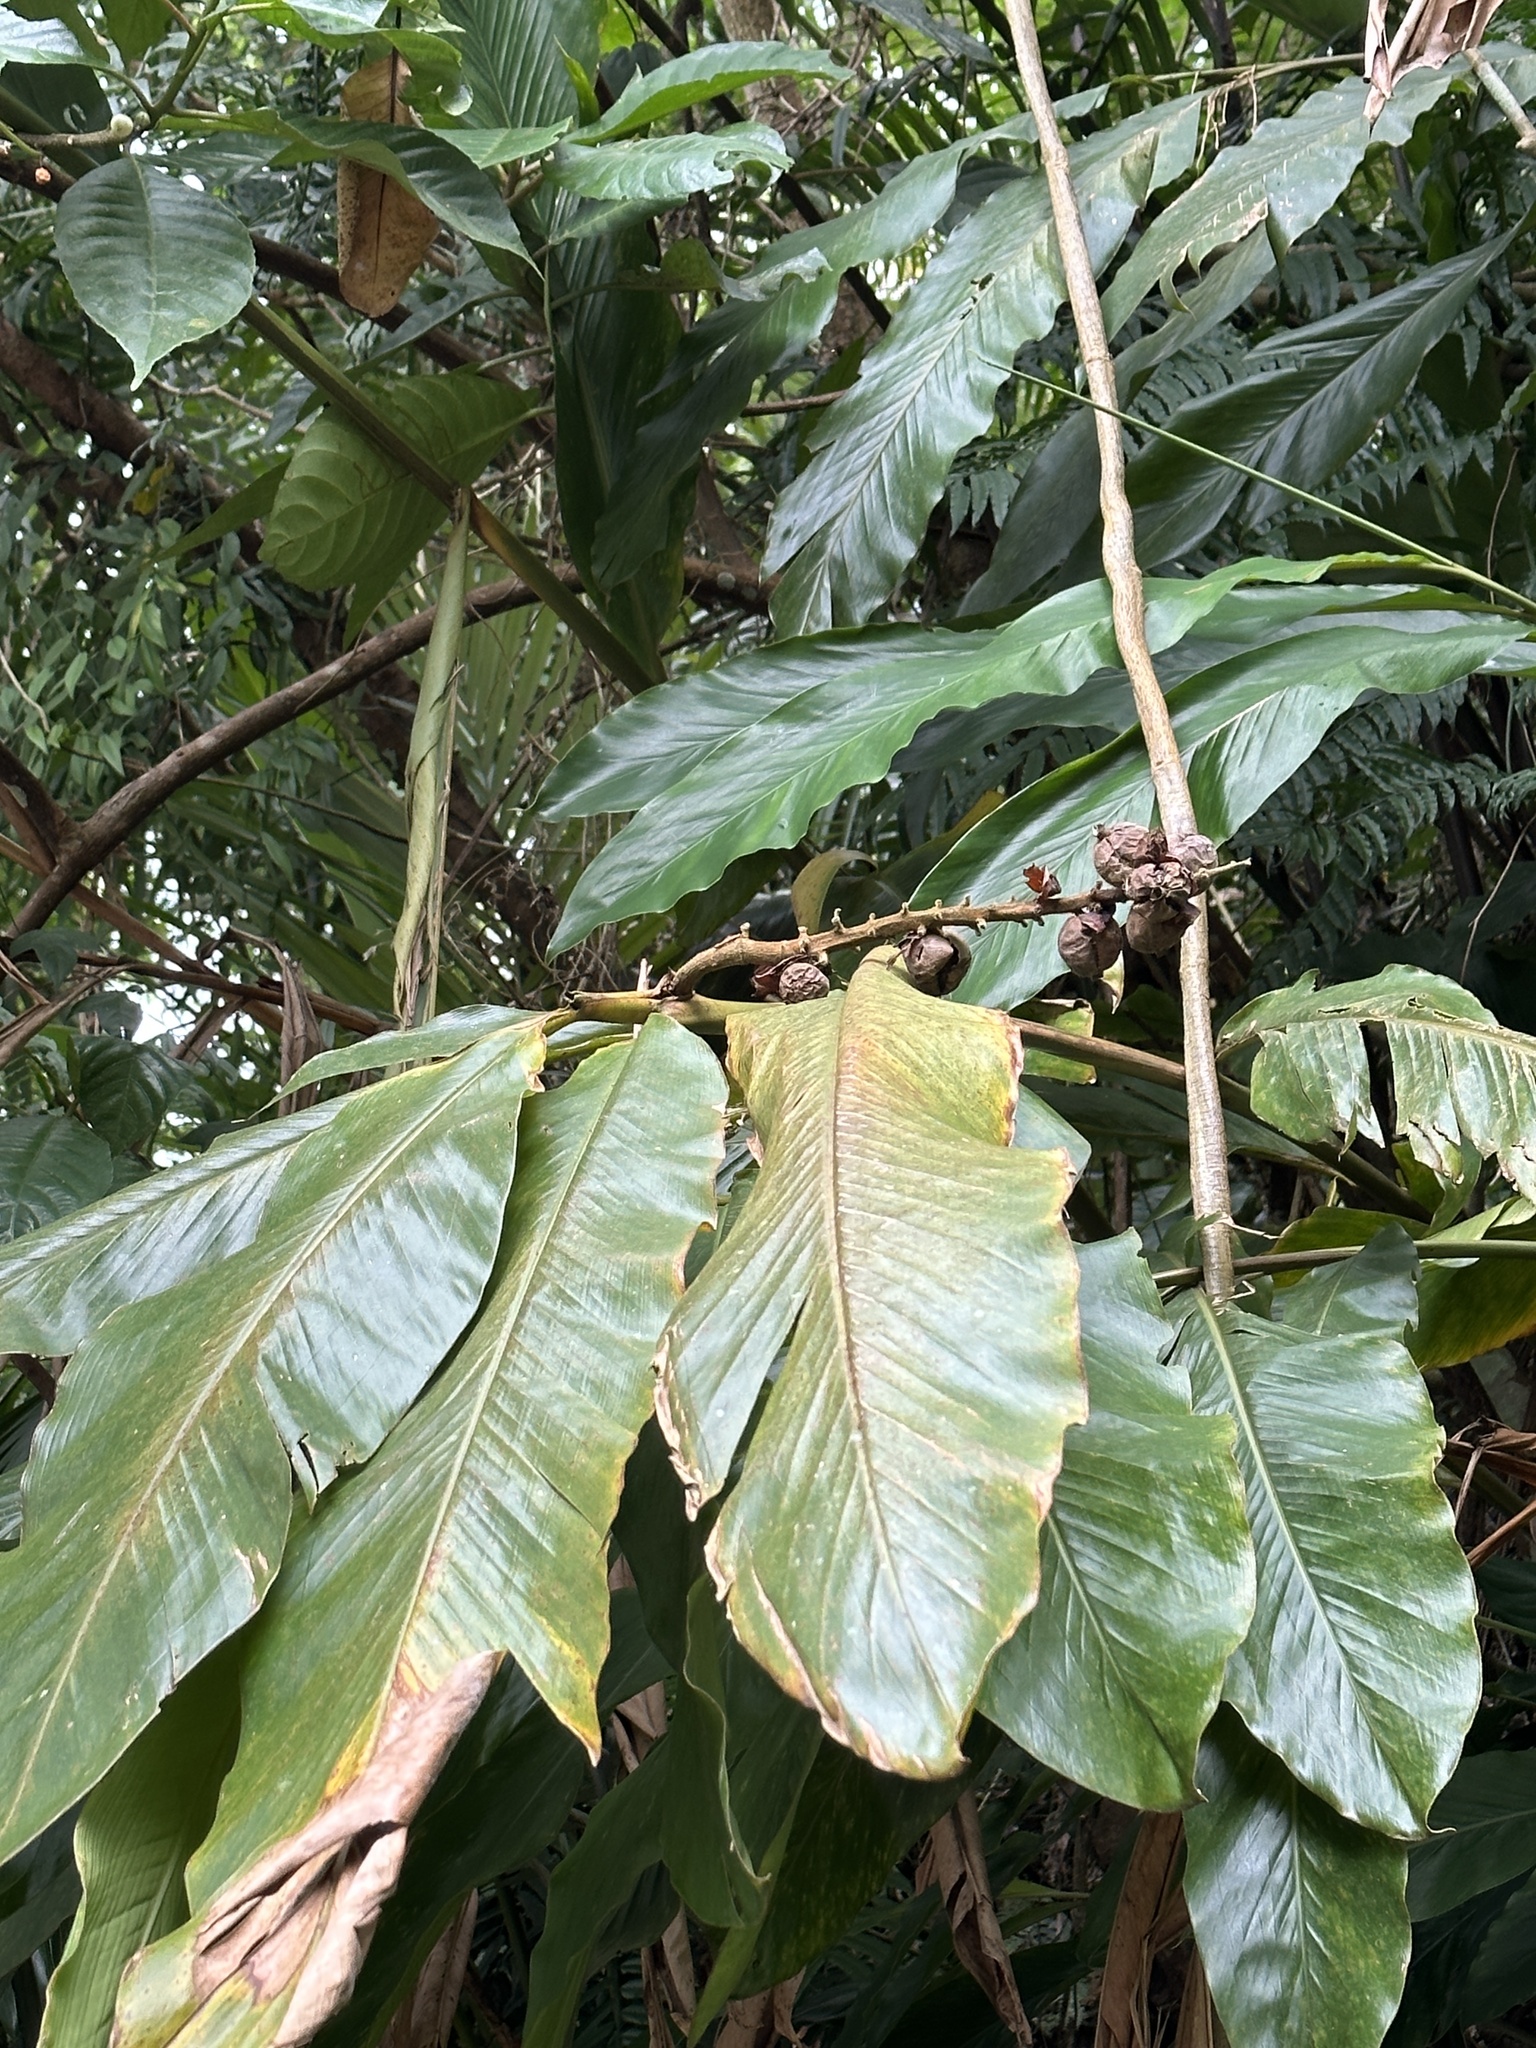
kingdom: Plantae
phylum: Tracheophyta
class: Liliopsida
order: Zingiberales
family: Zingiberaceae
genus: Alpinia
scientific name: Alpinia uraiensis
